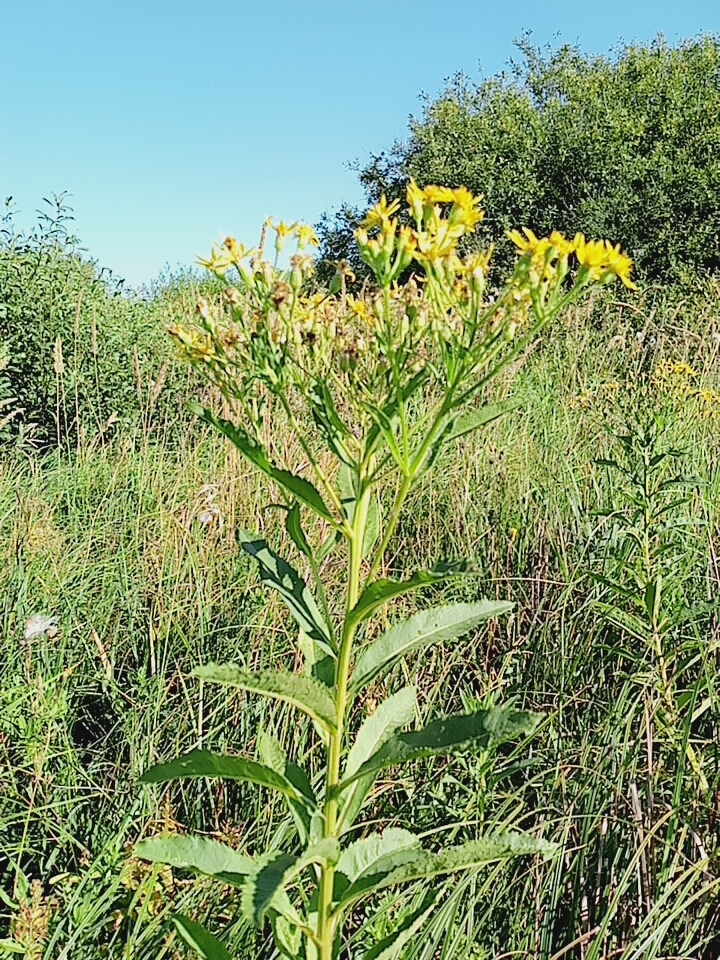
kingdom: Plantae
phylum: Tracheophyta
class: Magnoliopsida
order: Asterales
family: Asteraceae
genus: Senecio
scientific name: Senecio sarracenicus
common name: Broad-leaved ragwort
